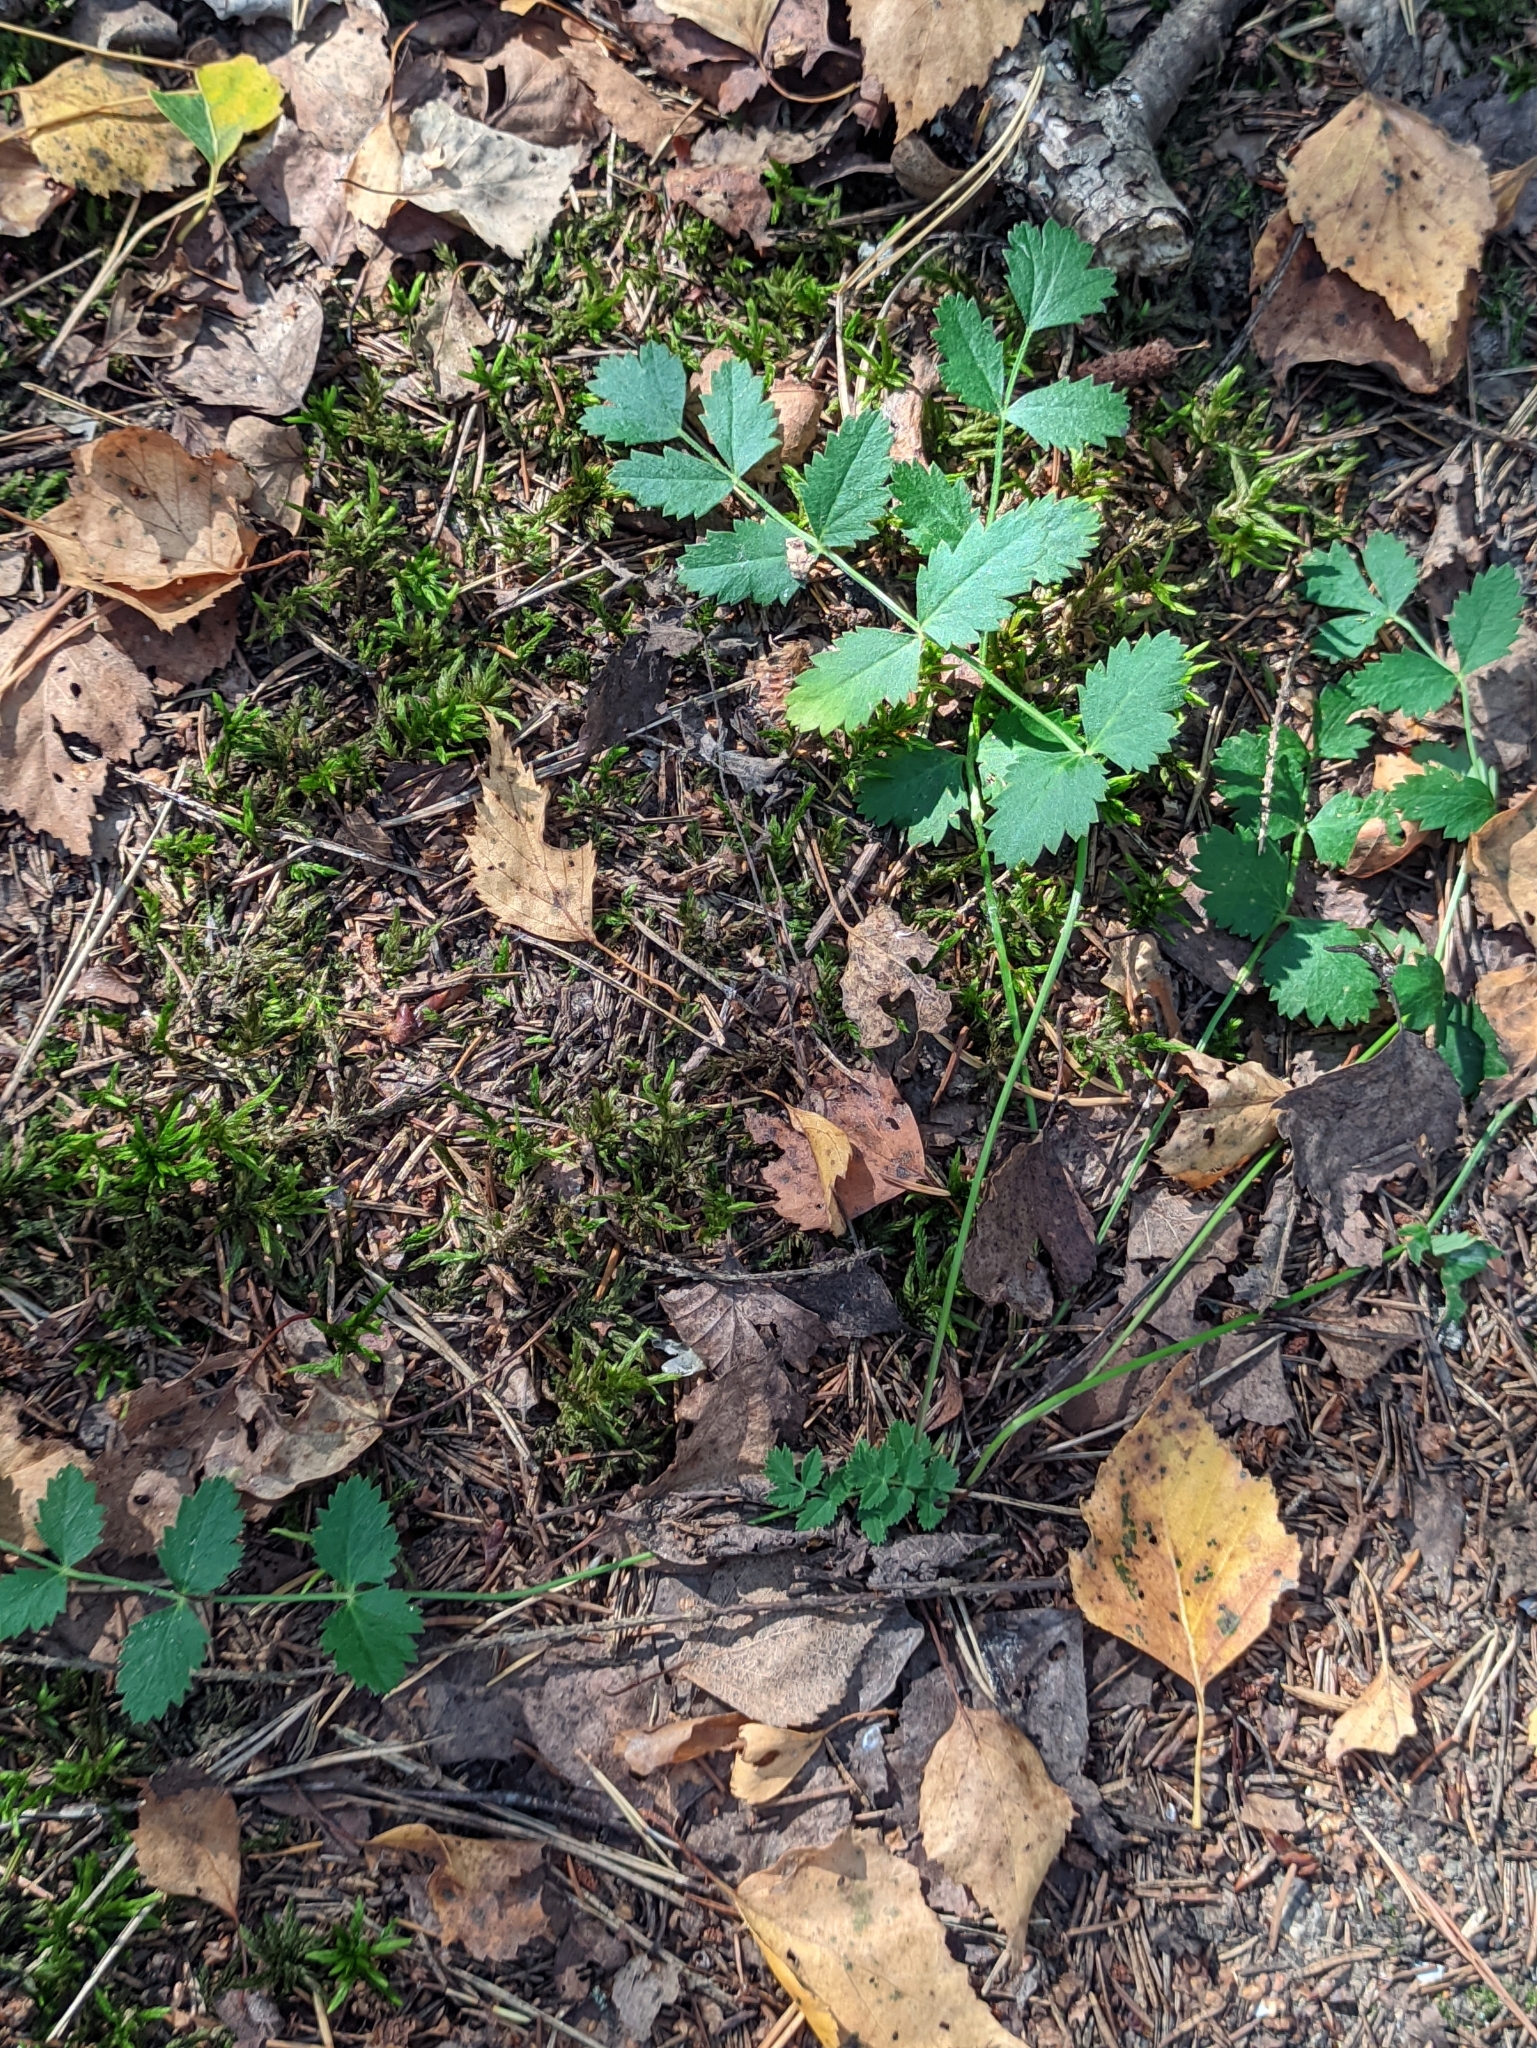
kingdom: Plantae
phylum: Tracheophyta
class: Magnoliopsida
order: Apiales
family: Apiaceae
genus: Pimpinella
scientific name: Pimpinella saxifraga
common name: Burnet-saxifrage
